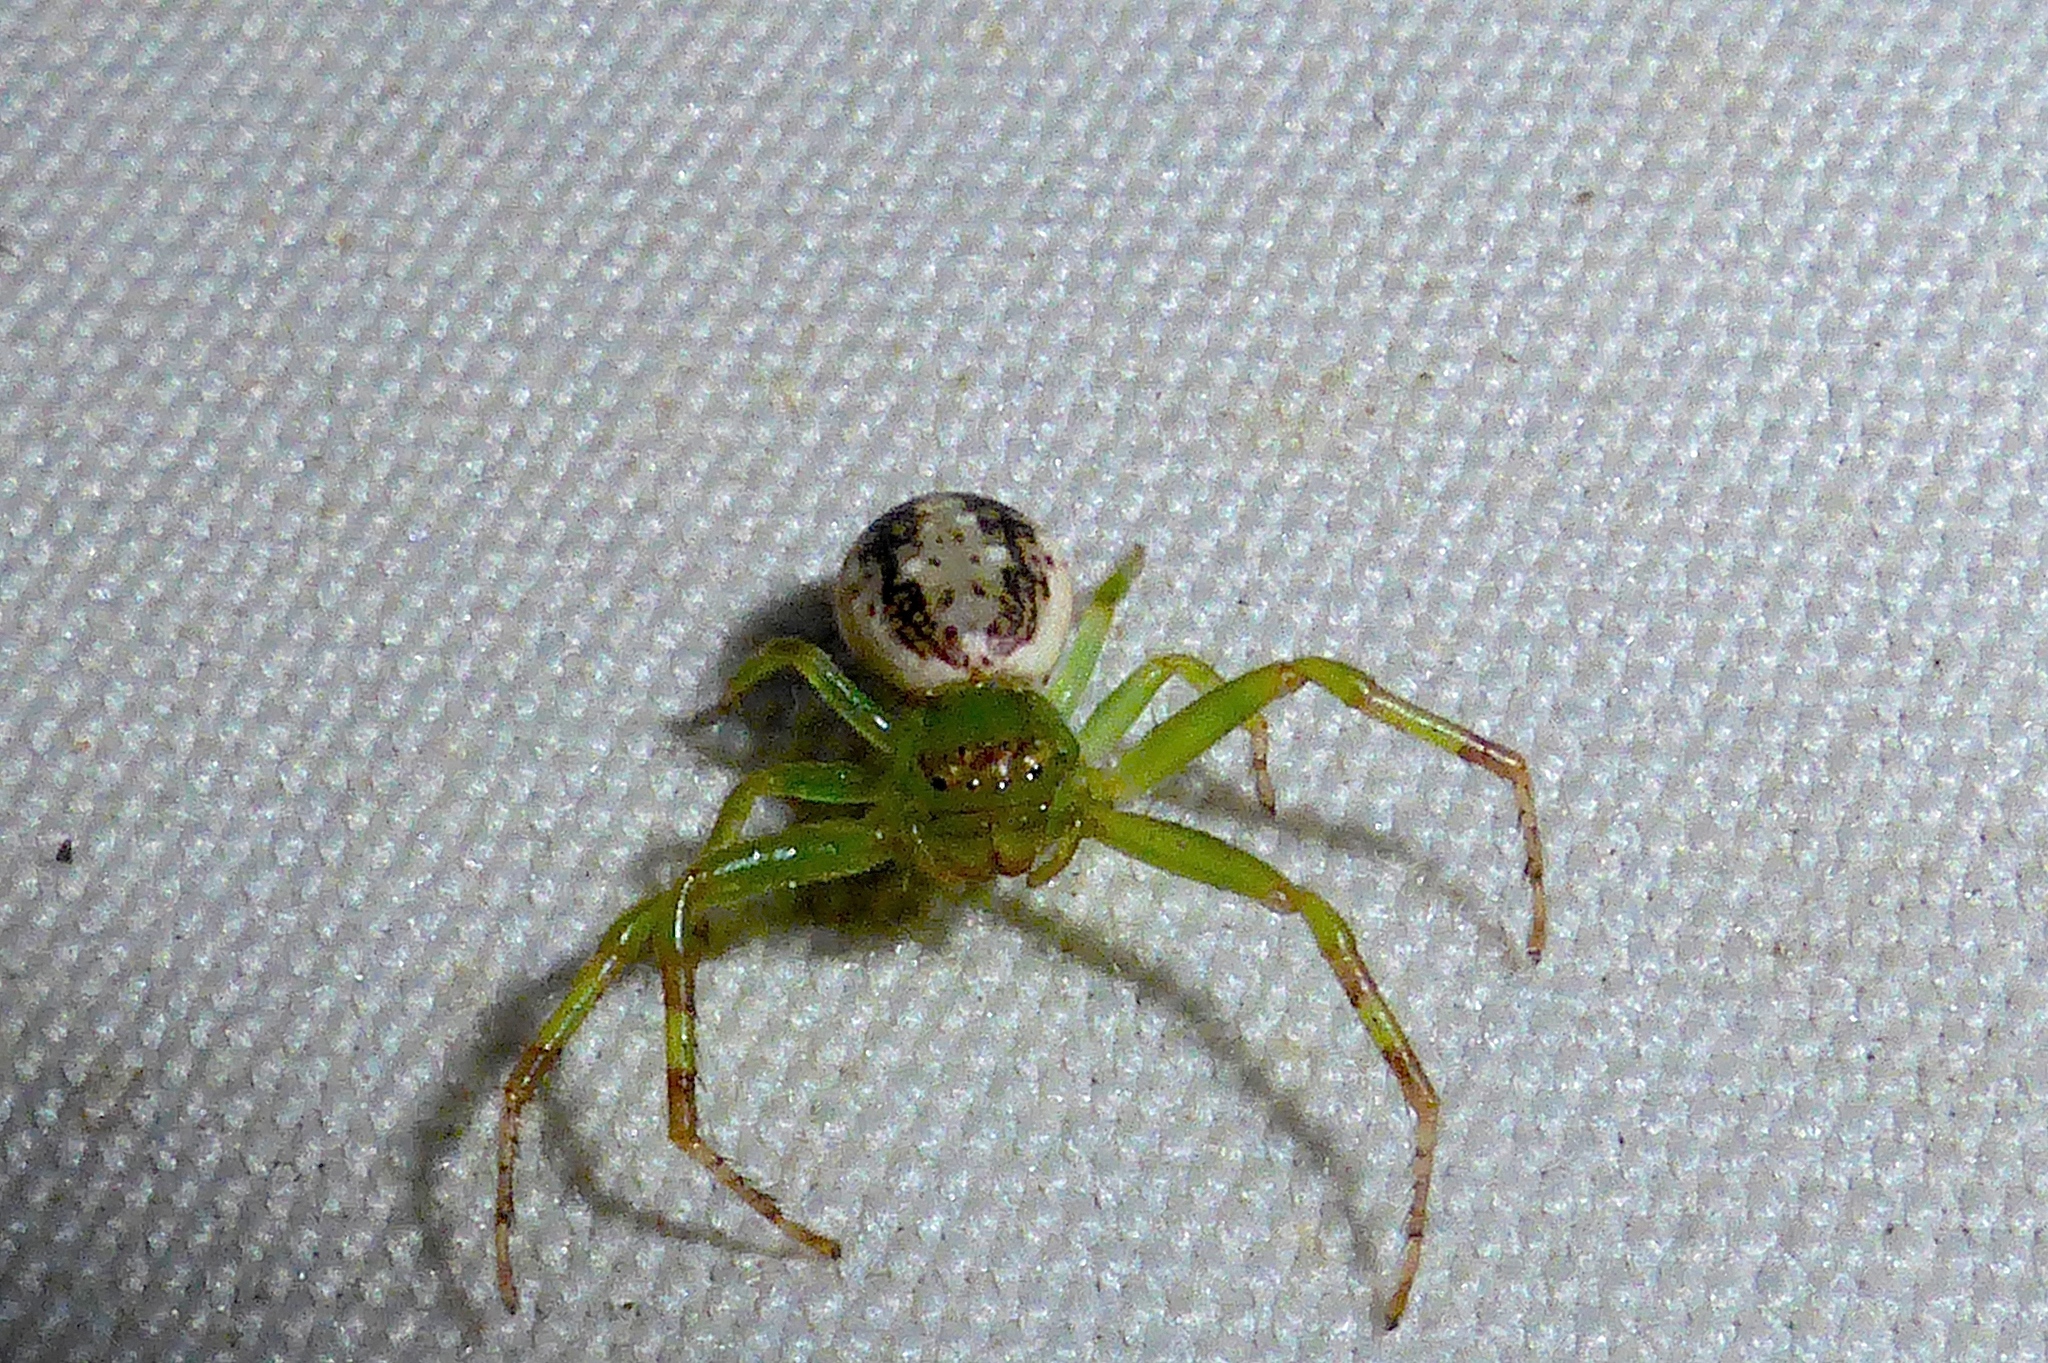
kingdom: Animalia
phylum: Arthropoda
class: Arachnida
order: Araneae
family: Thomisidae
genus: Diaea
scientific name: Diaea ambara
